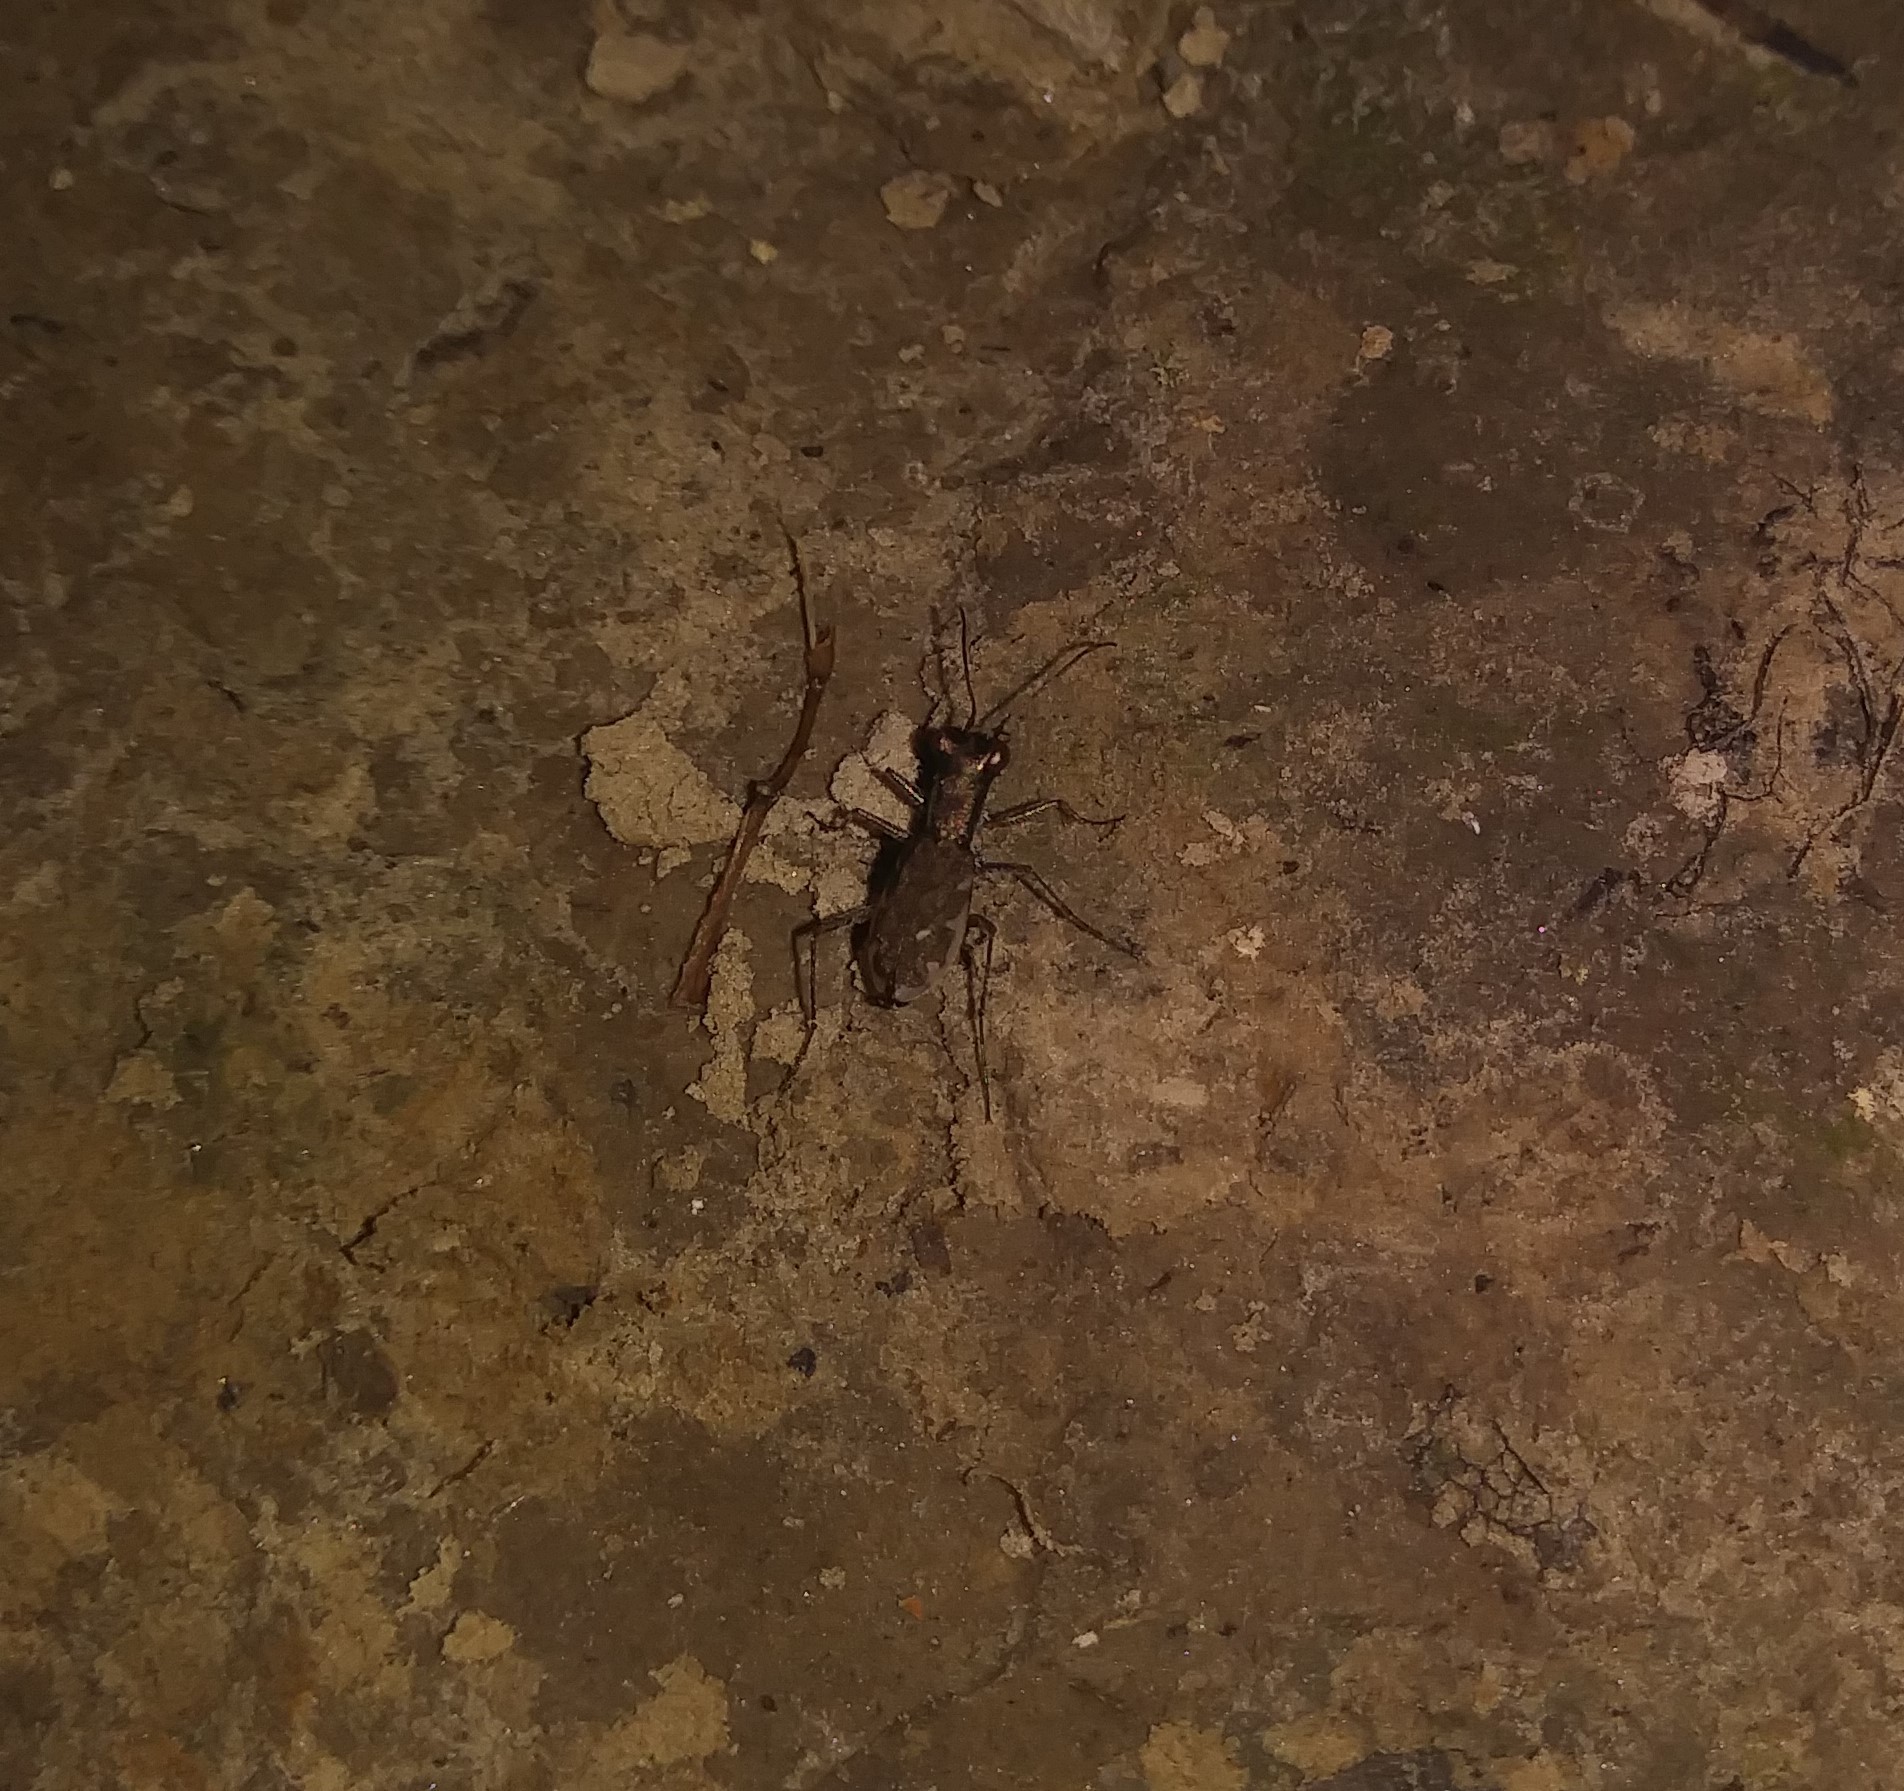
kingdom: Animalia
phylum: Arthropoda
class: Insecta
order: Coleoptera
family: Carabidae
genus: Cylindera
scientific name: Cylindera cursitans
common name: Ant-like tiger beetle
